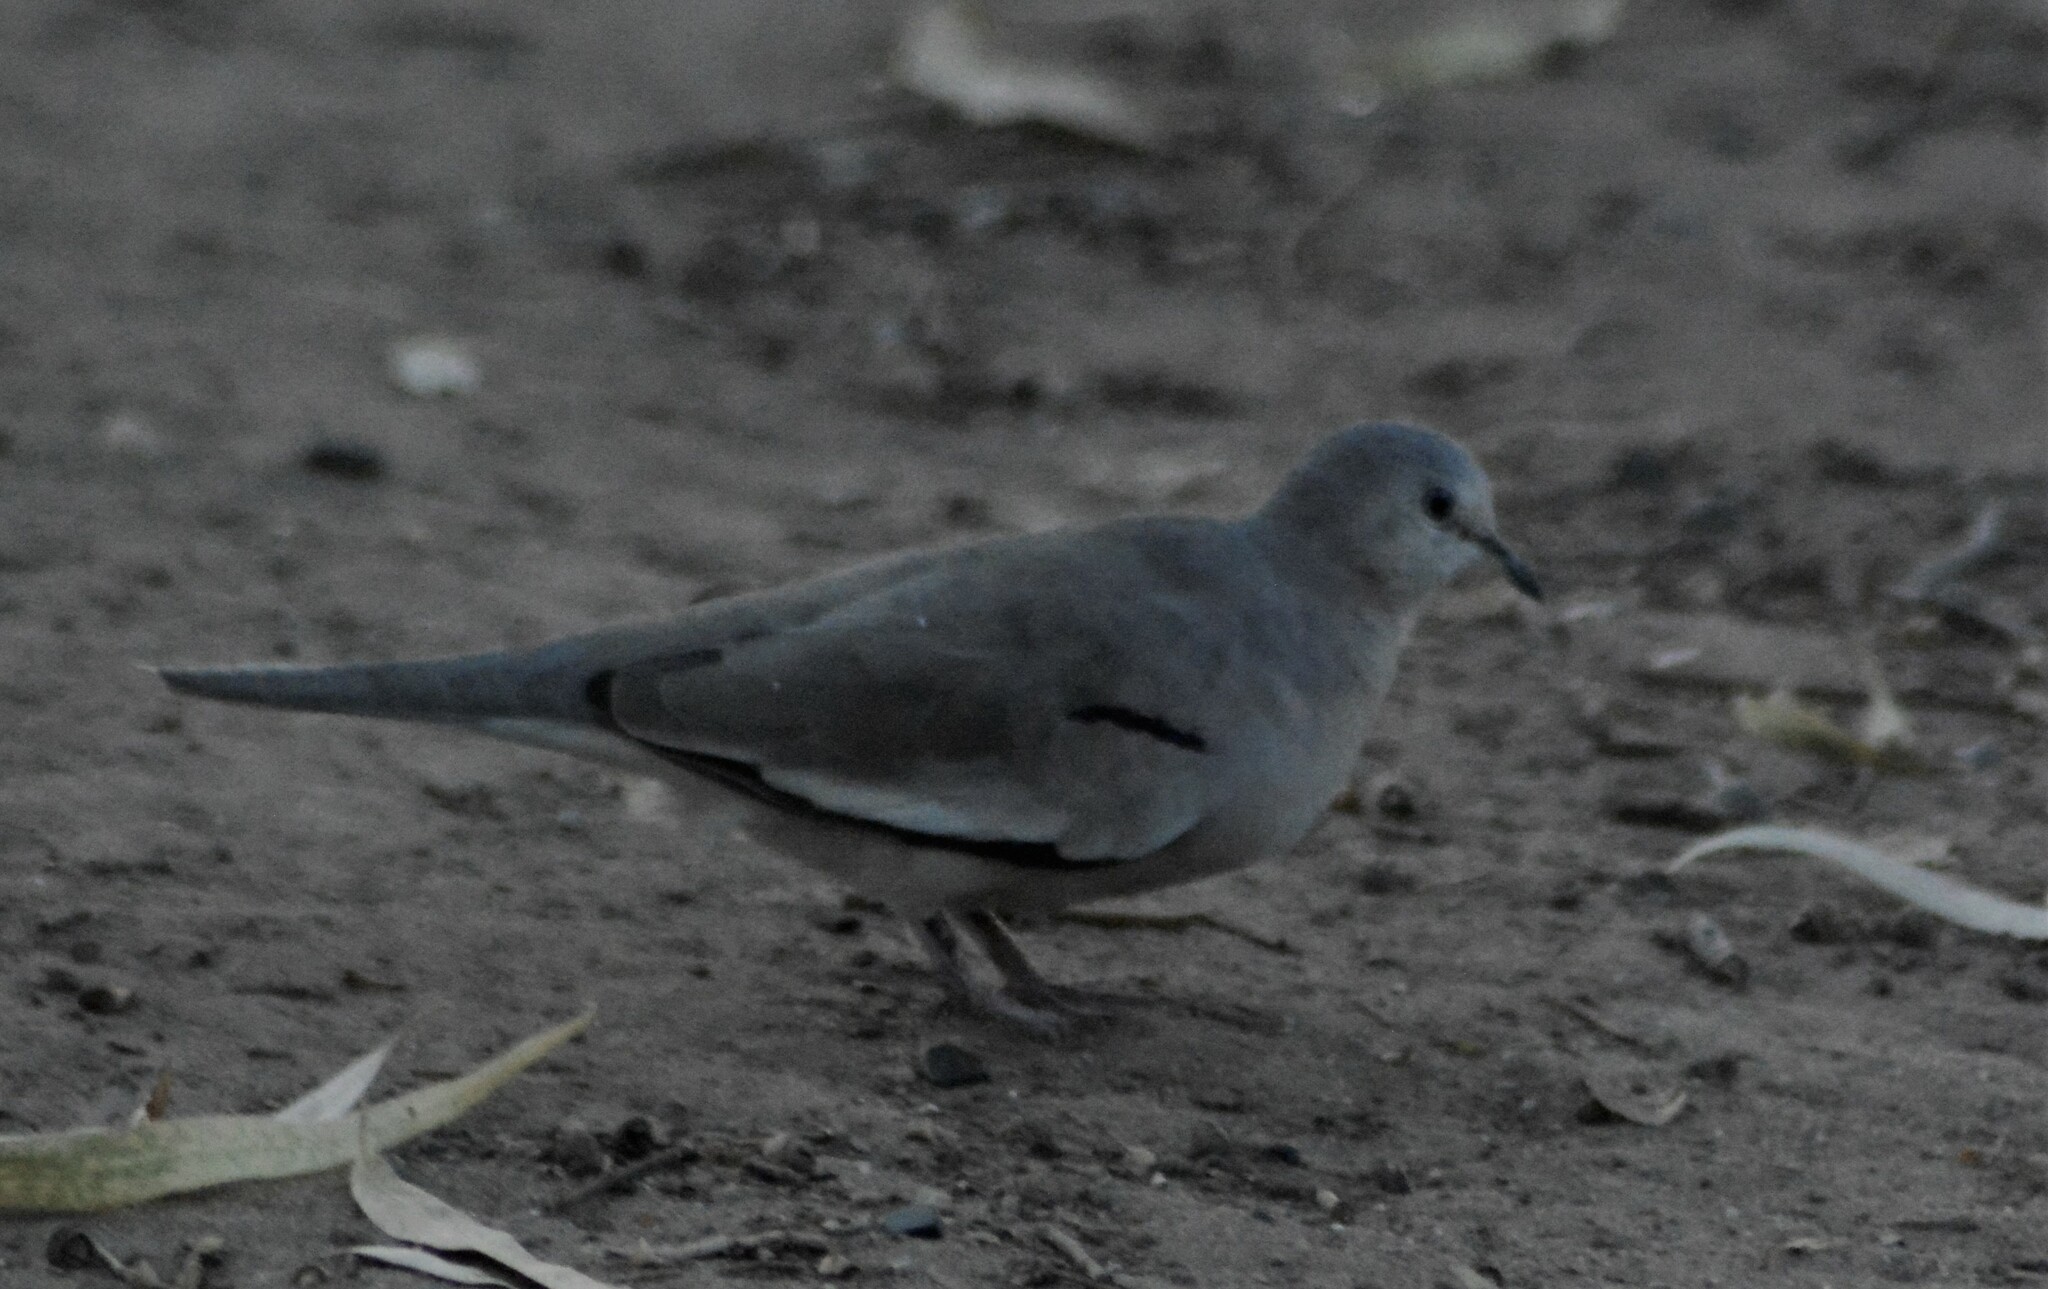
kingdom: Animalia
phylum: Chordata
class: Aves
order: Columbiformes
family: Columbidae
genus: Columbina
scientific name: Columbina picui
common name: Picui ground dove
